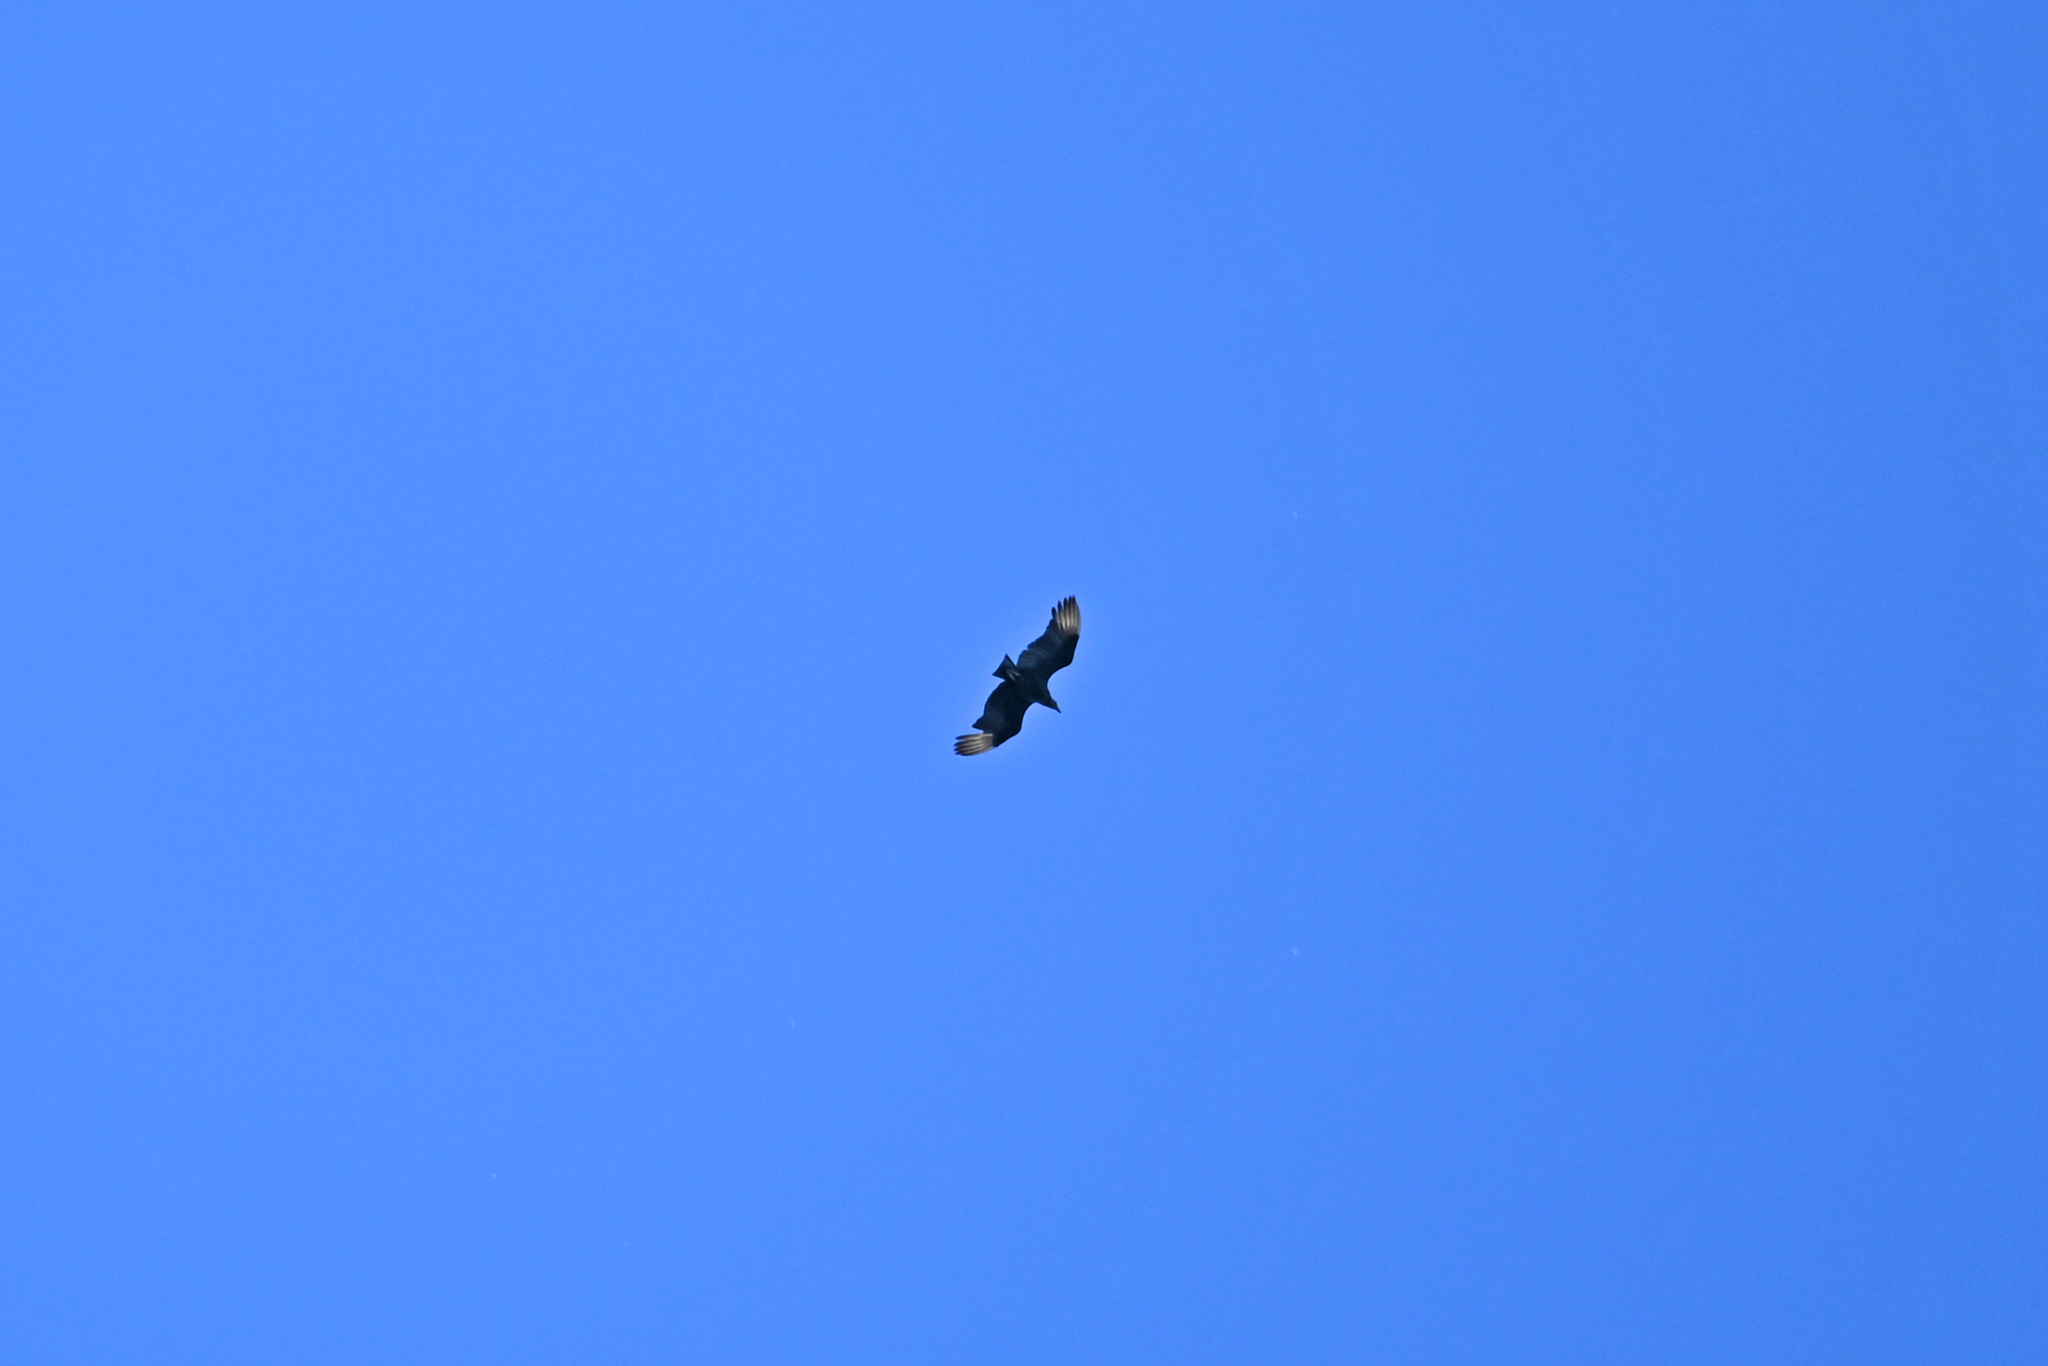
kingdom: Animalia
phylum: Chordata
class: Aves
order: Accipitriformes
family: Cathartidae
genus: Coragyps
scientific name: Coragyps atratus
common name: Black vulture
